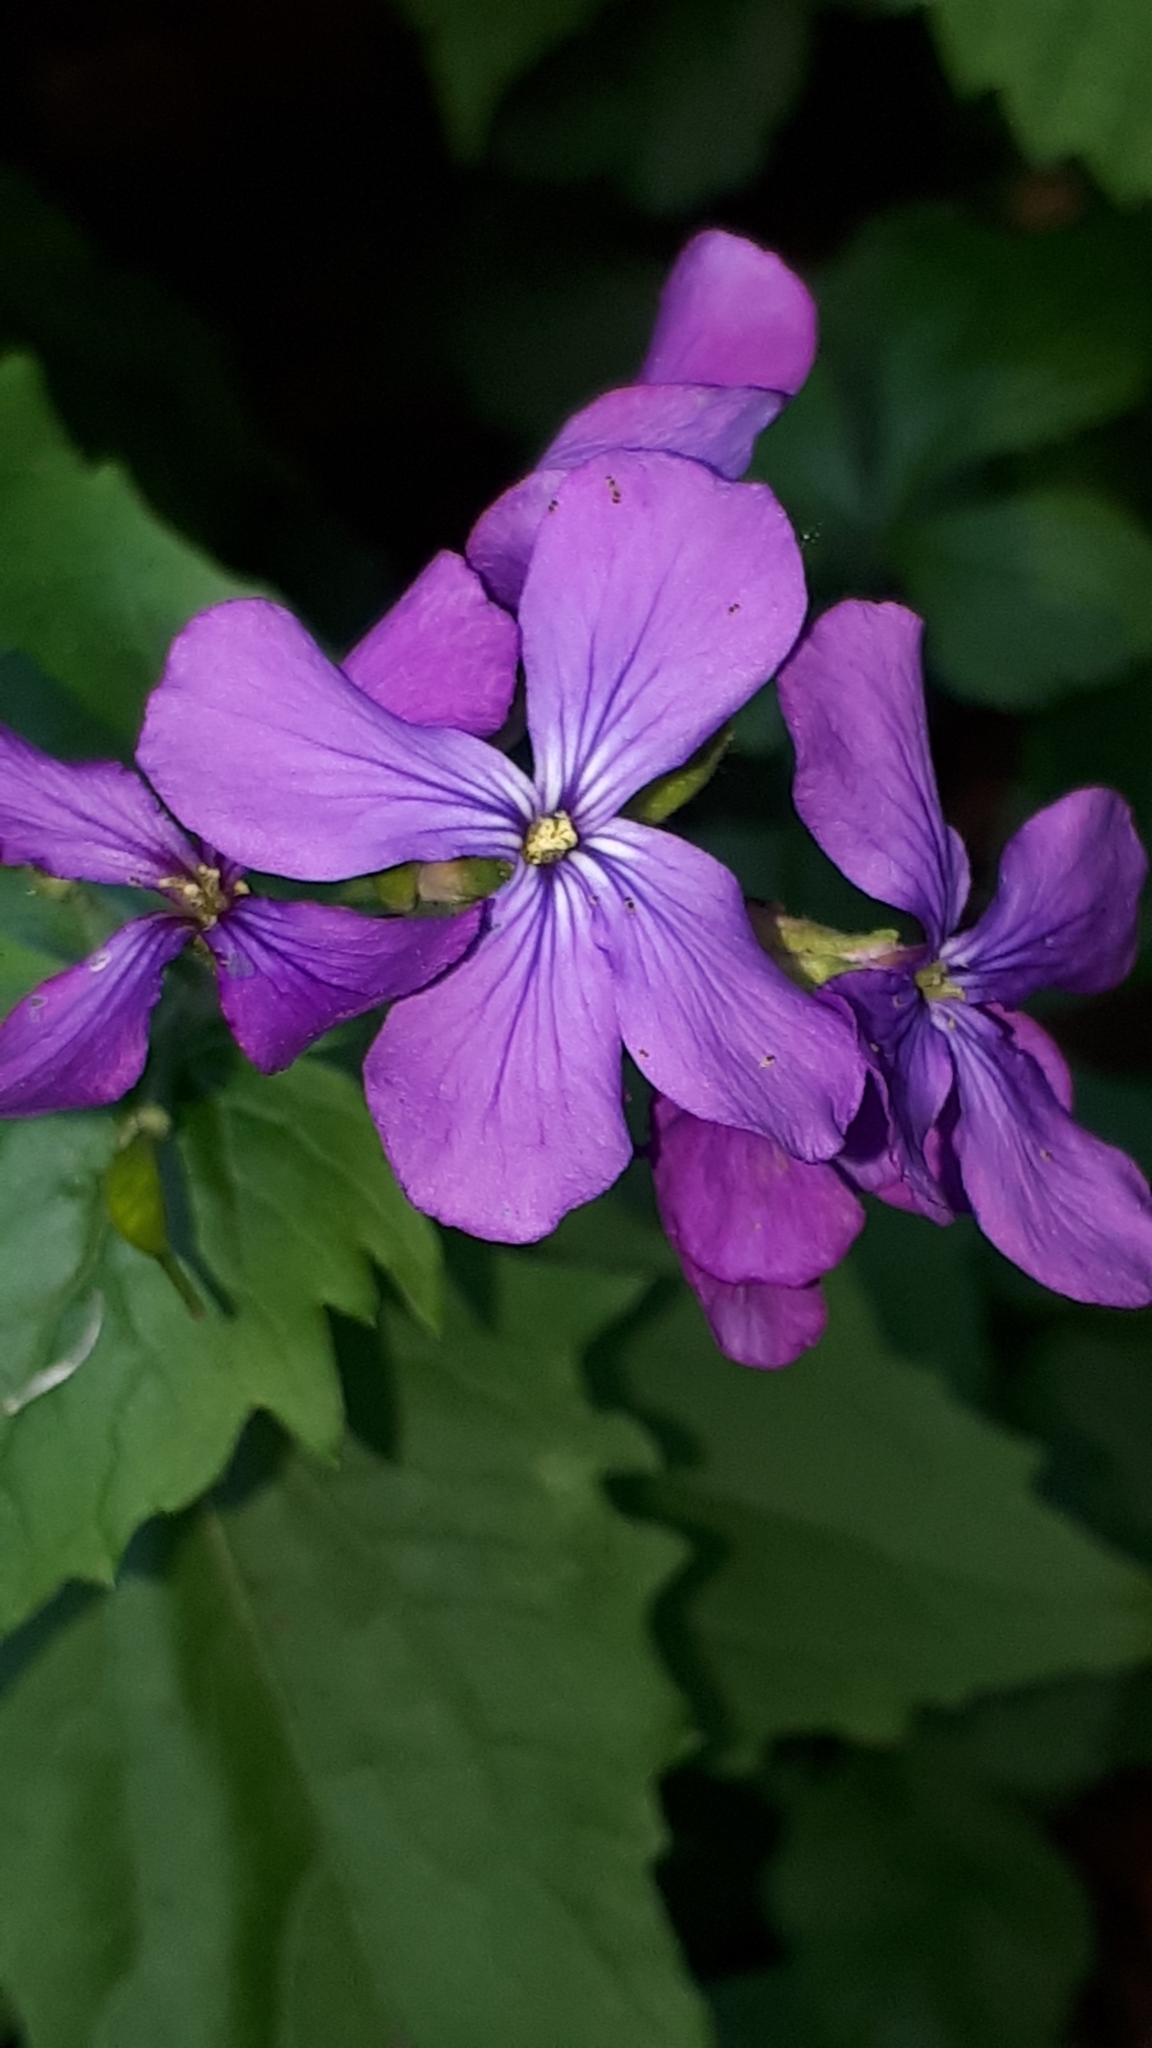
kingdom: Plantae
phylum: Tracheophyta
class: Magnoliopsida
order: Brassicales
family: Brassicaceae
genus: Lunaria
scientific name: Lunaria annua
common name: Honesty
